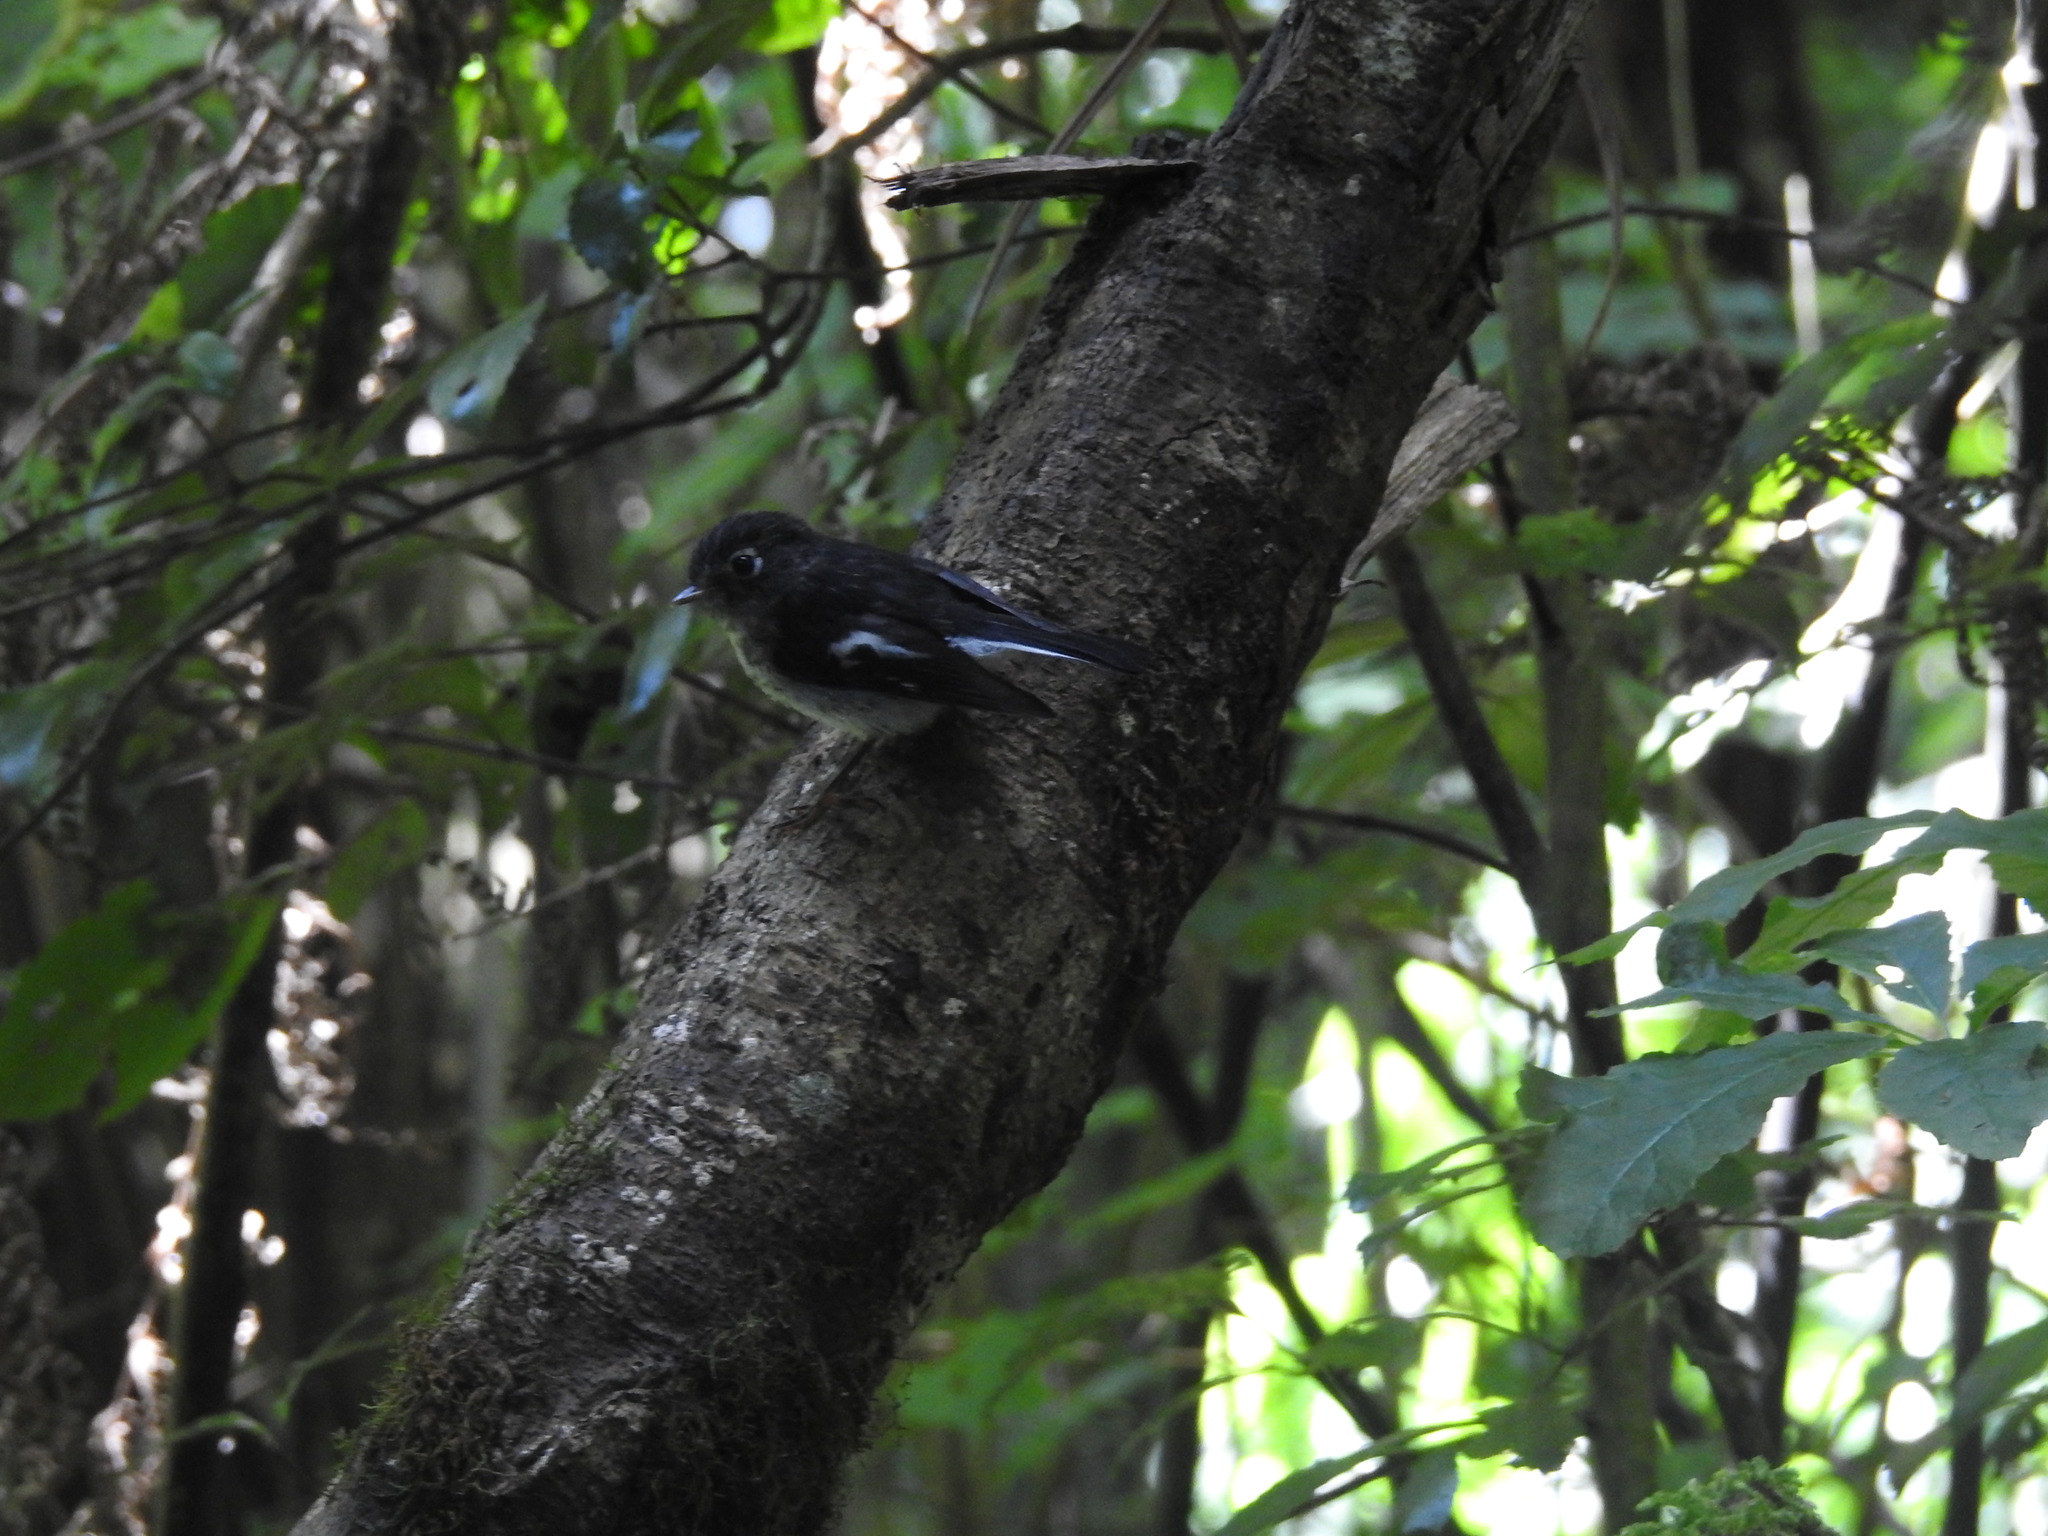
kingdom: Animalia
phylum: Chordata
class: Aves
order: Passeriformes
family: Petroicidae
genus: Petroica
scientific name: Petroica macrocephala
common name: Tomtit
